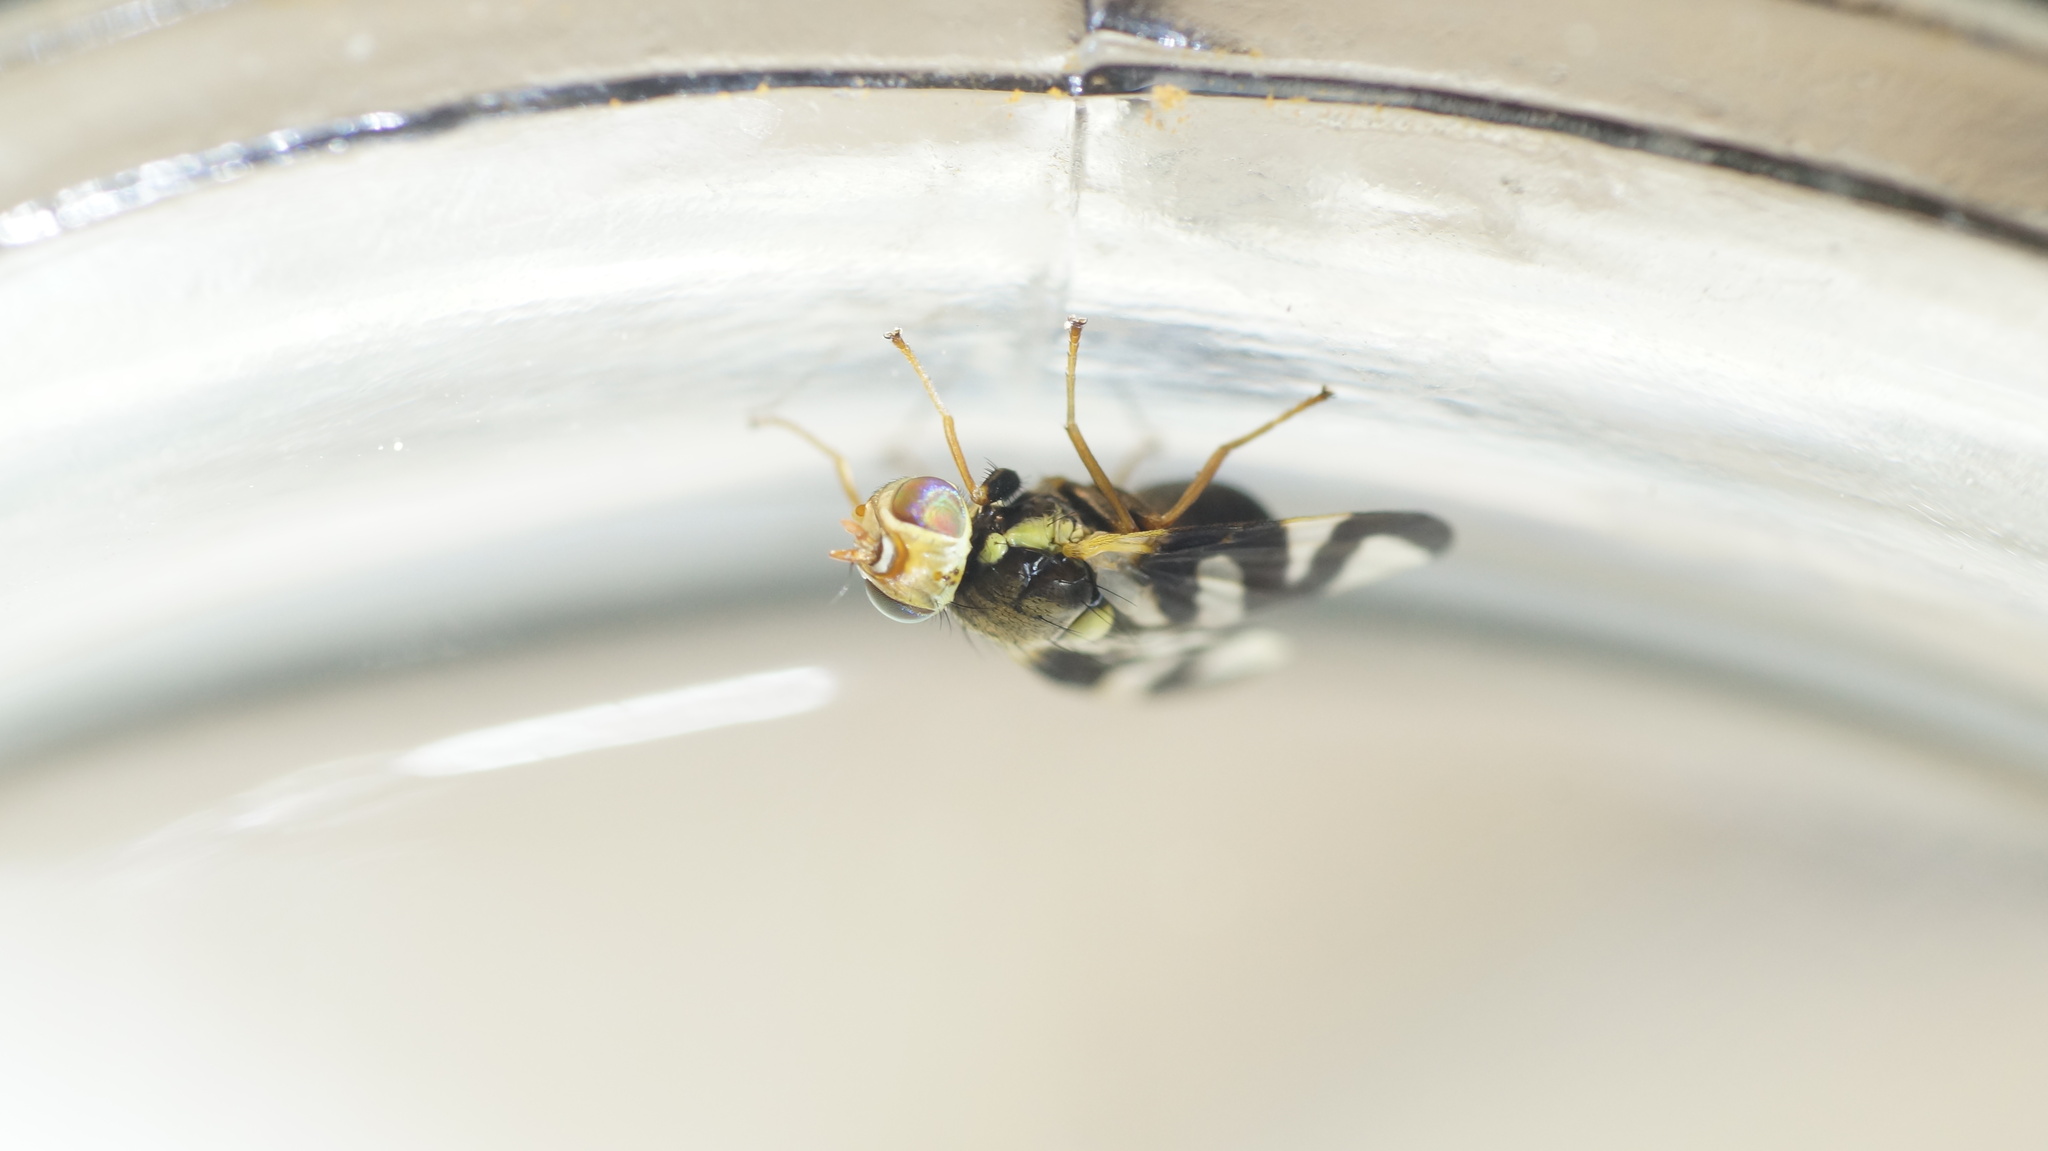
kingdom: Animalia
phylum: Arthropoda
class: Insecta
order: Diptera
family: Tephritidae
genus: Urophora
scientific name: Urophora cardui
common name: Fruit fly
